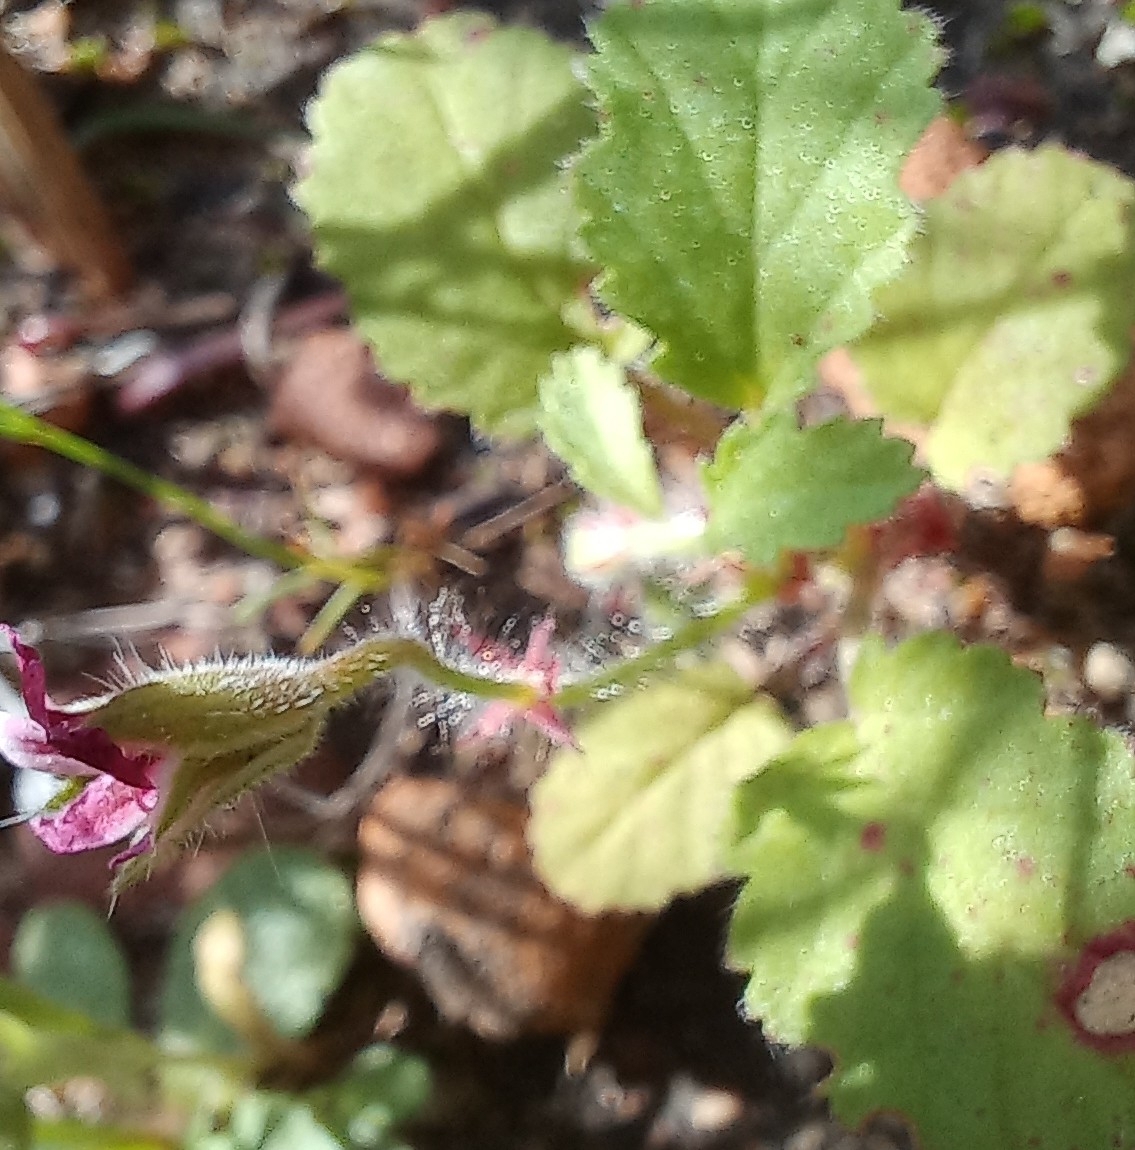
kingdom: Plantae
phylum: Tracheophyta
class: Magnoliopsida
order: Geraniales
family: Geraniaceae
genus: Pelargonium
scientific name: Pelargonium althaeoides
